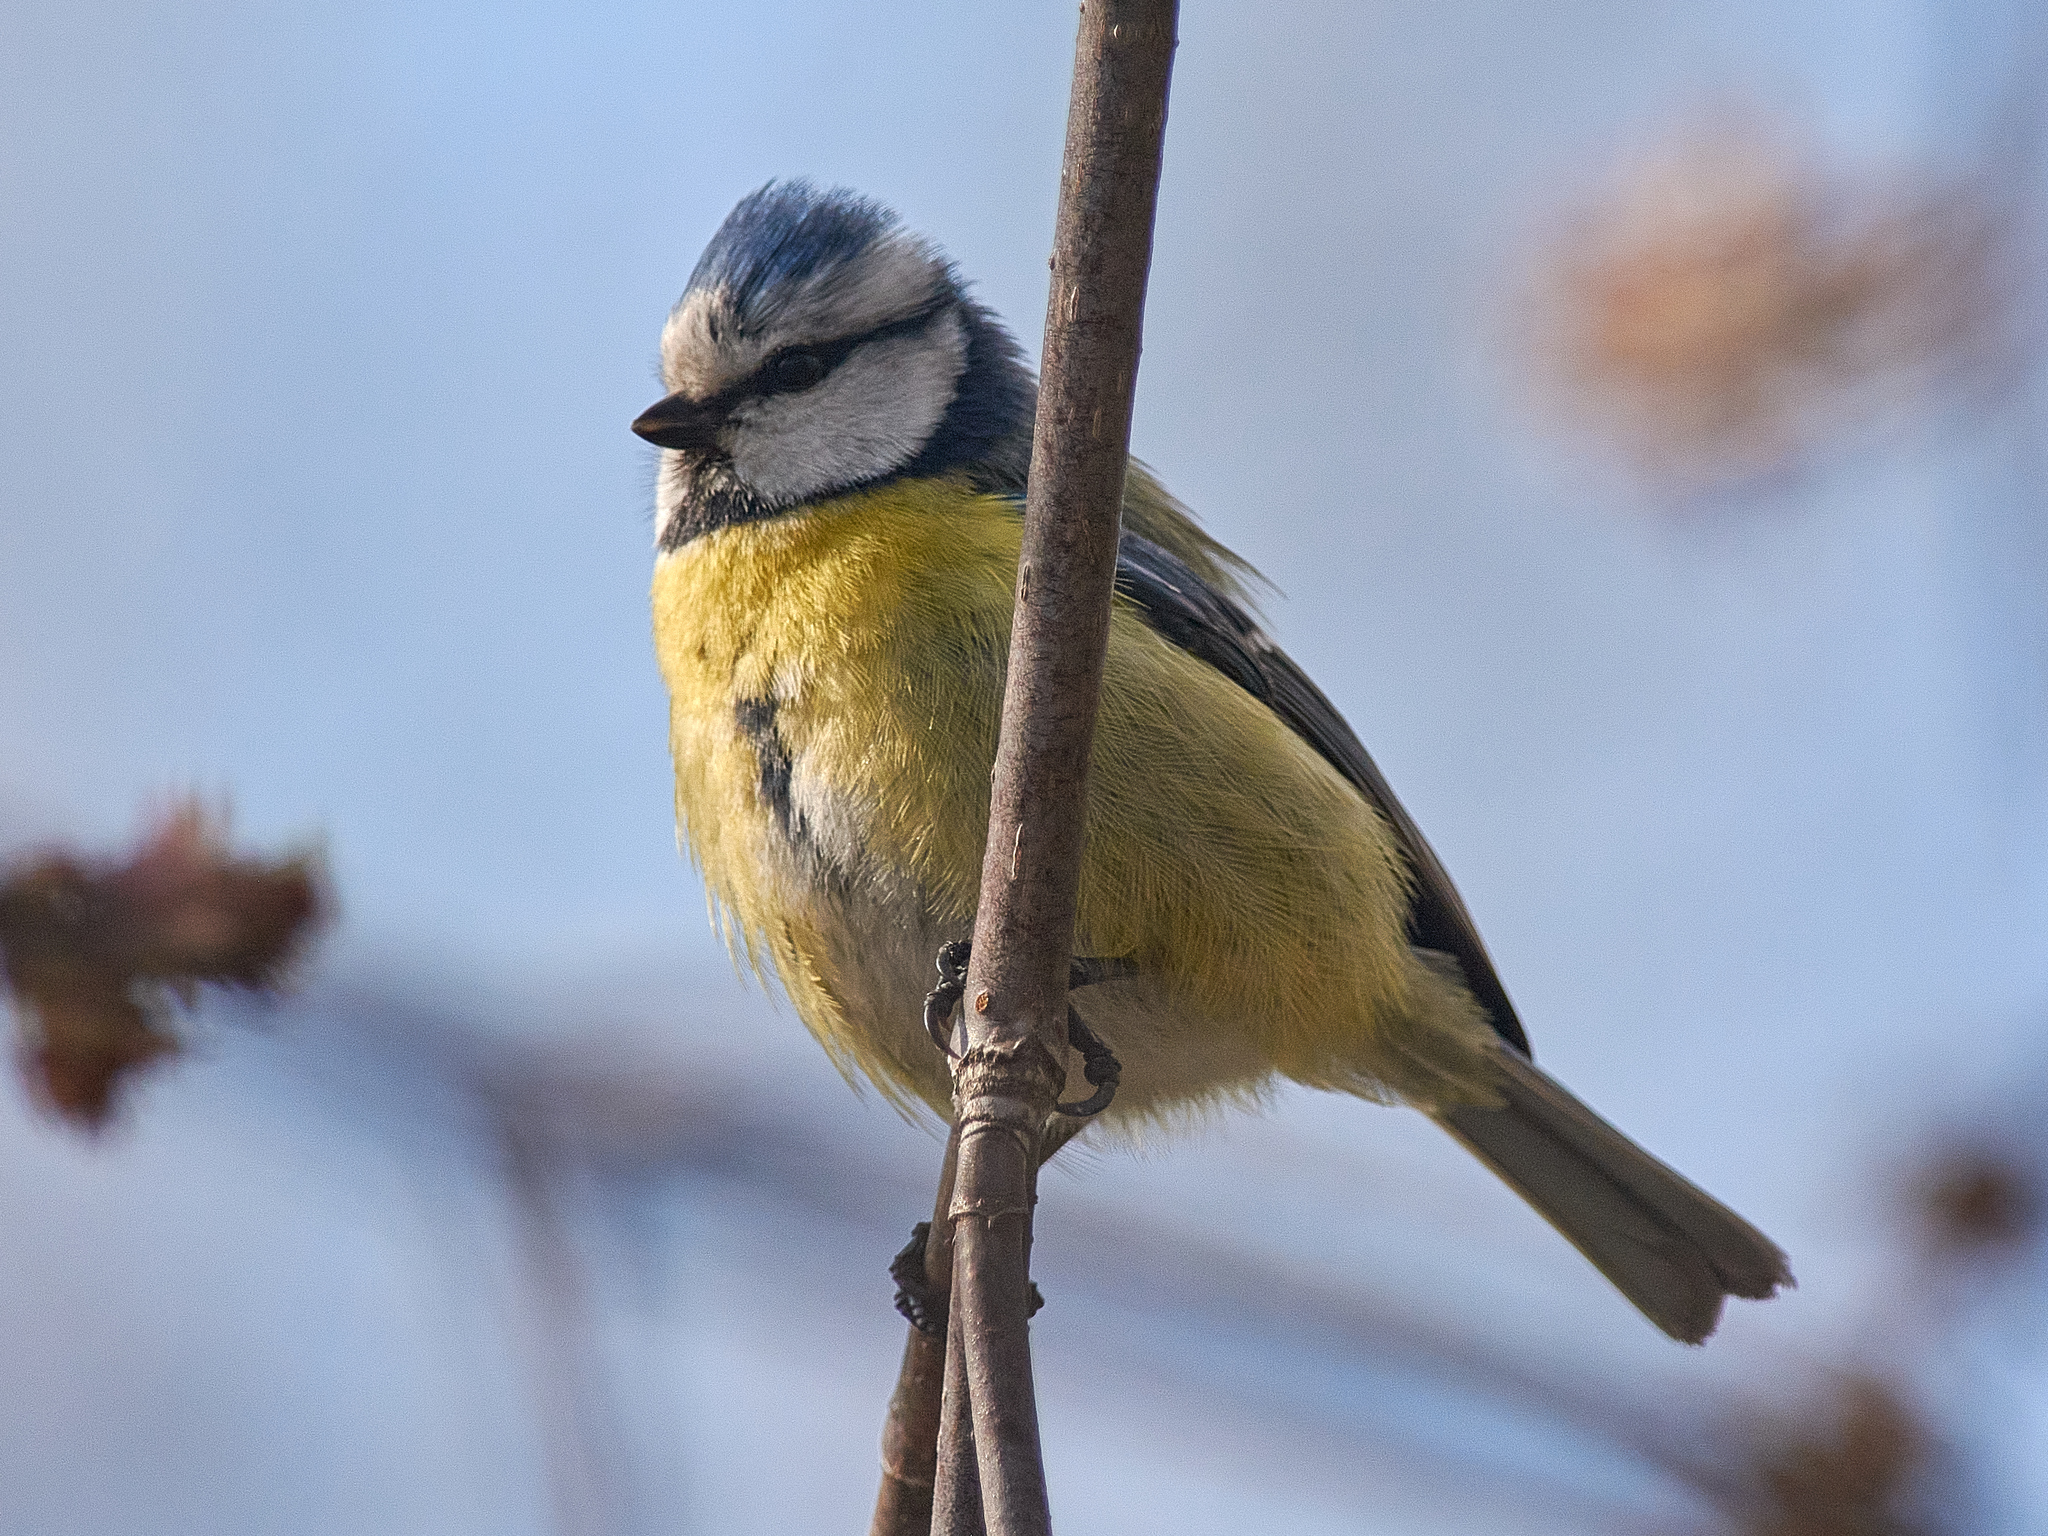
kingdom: Animalia
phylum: Chordata
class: Aves
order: Passeriformes
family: Paridae
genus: Cyanistes
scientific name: Cyanistes caeruleus
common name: Eurasian blue tit
